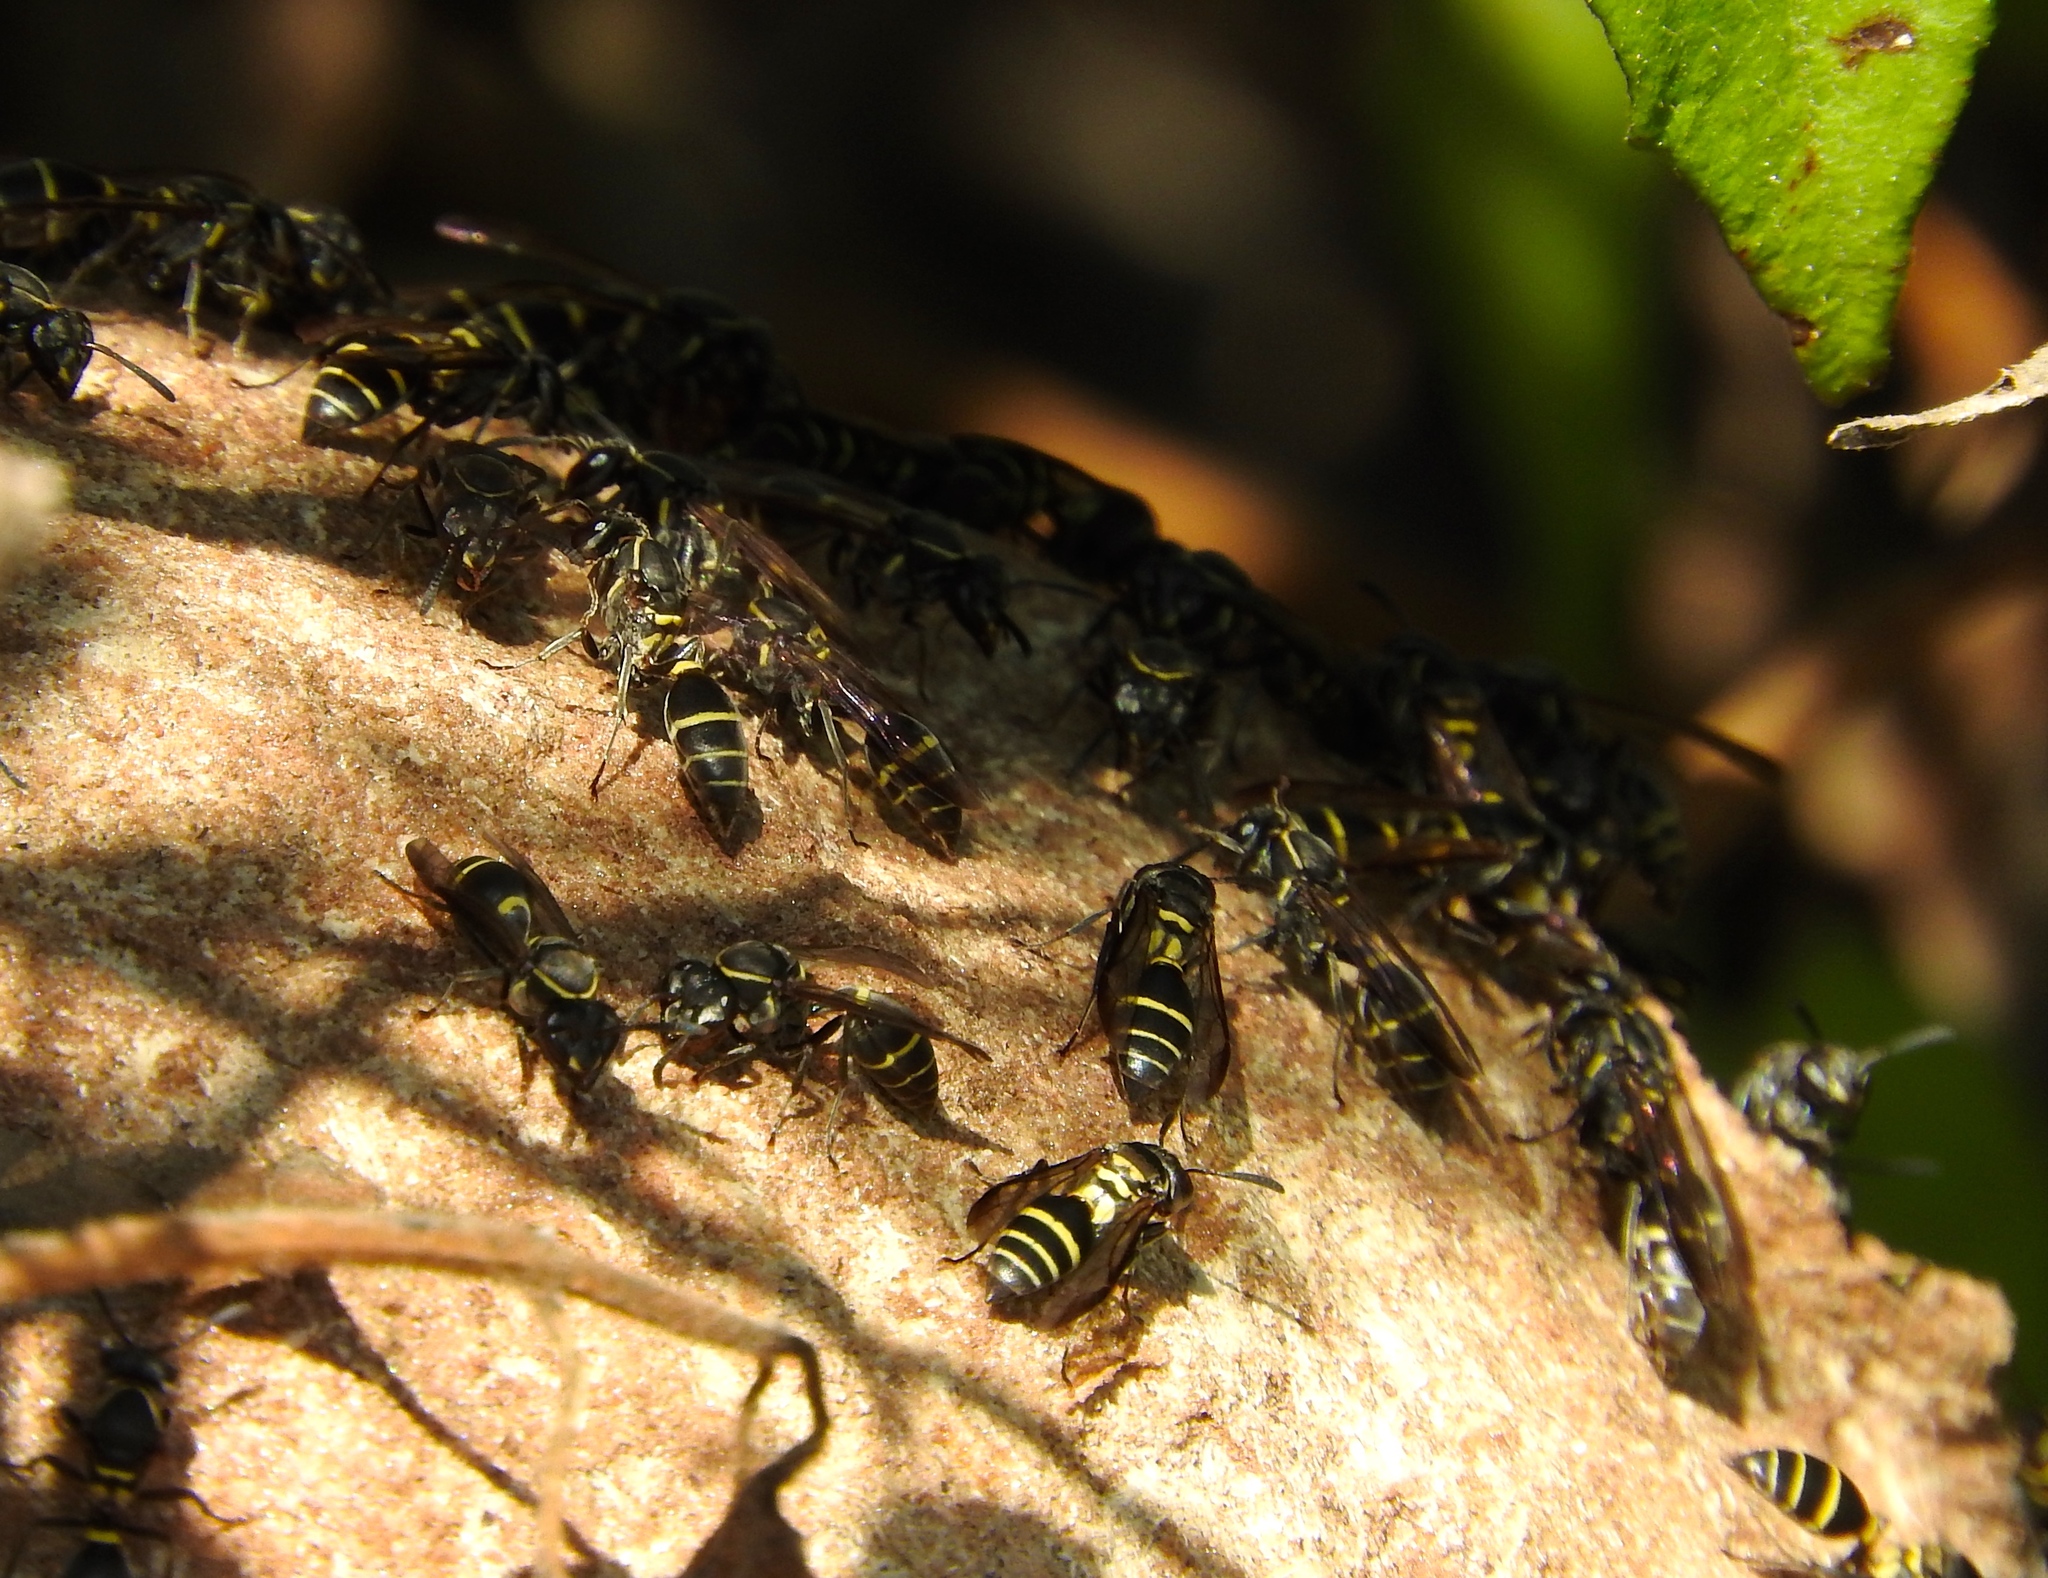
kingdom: Animalia
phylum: Arthropoda
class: Insecta
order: Hymenoptera
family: Vespidae
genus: Myrapetra
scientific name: Myrapetra
